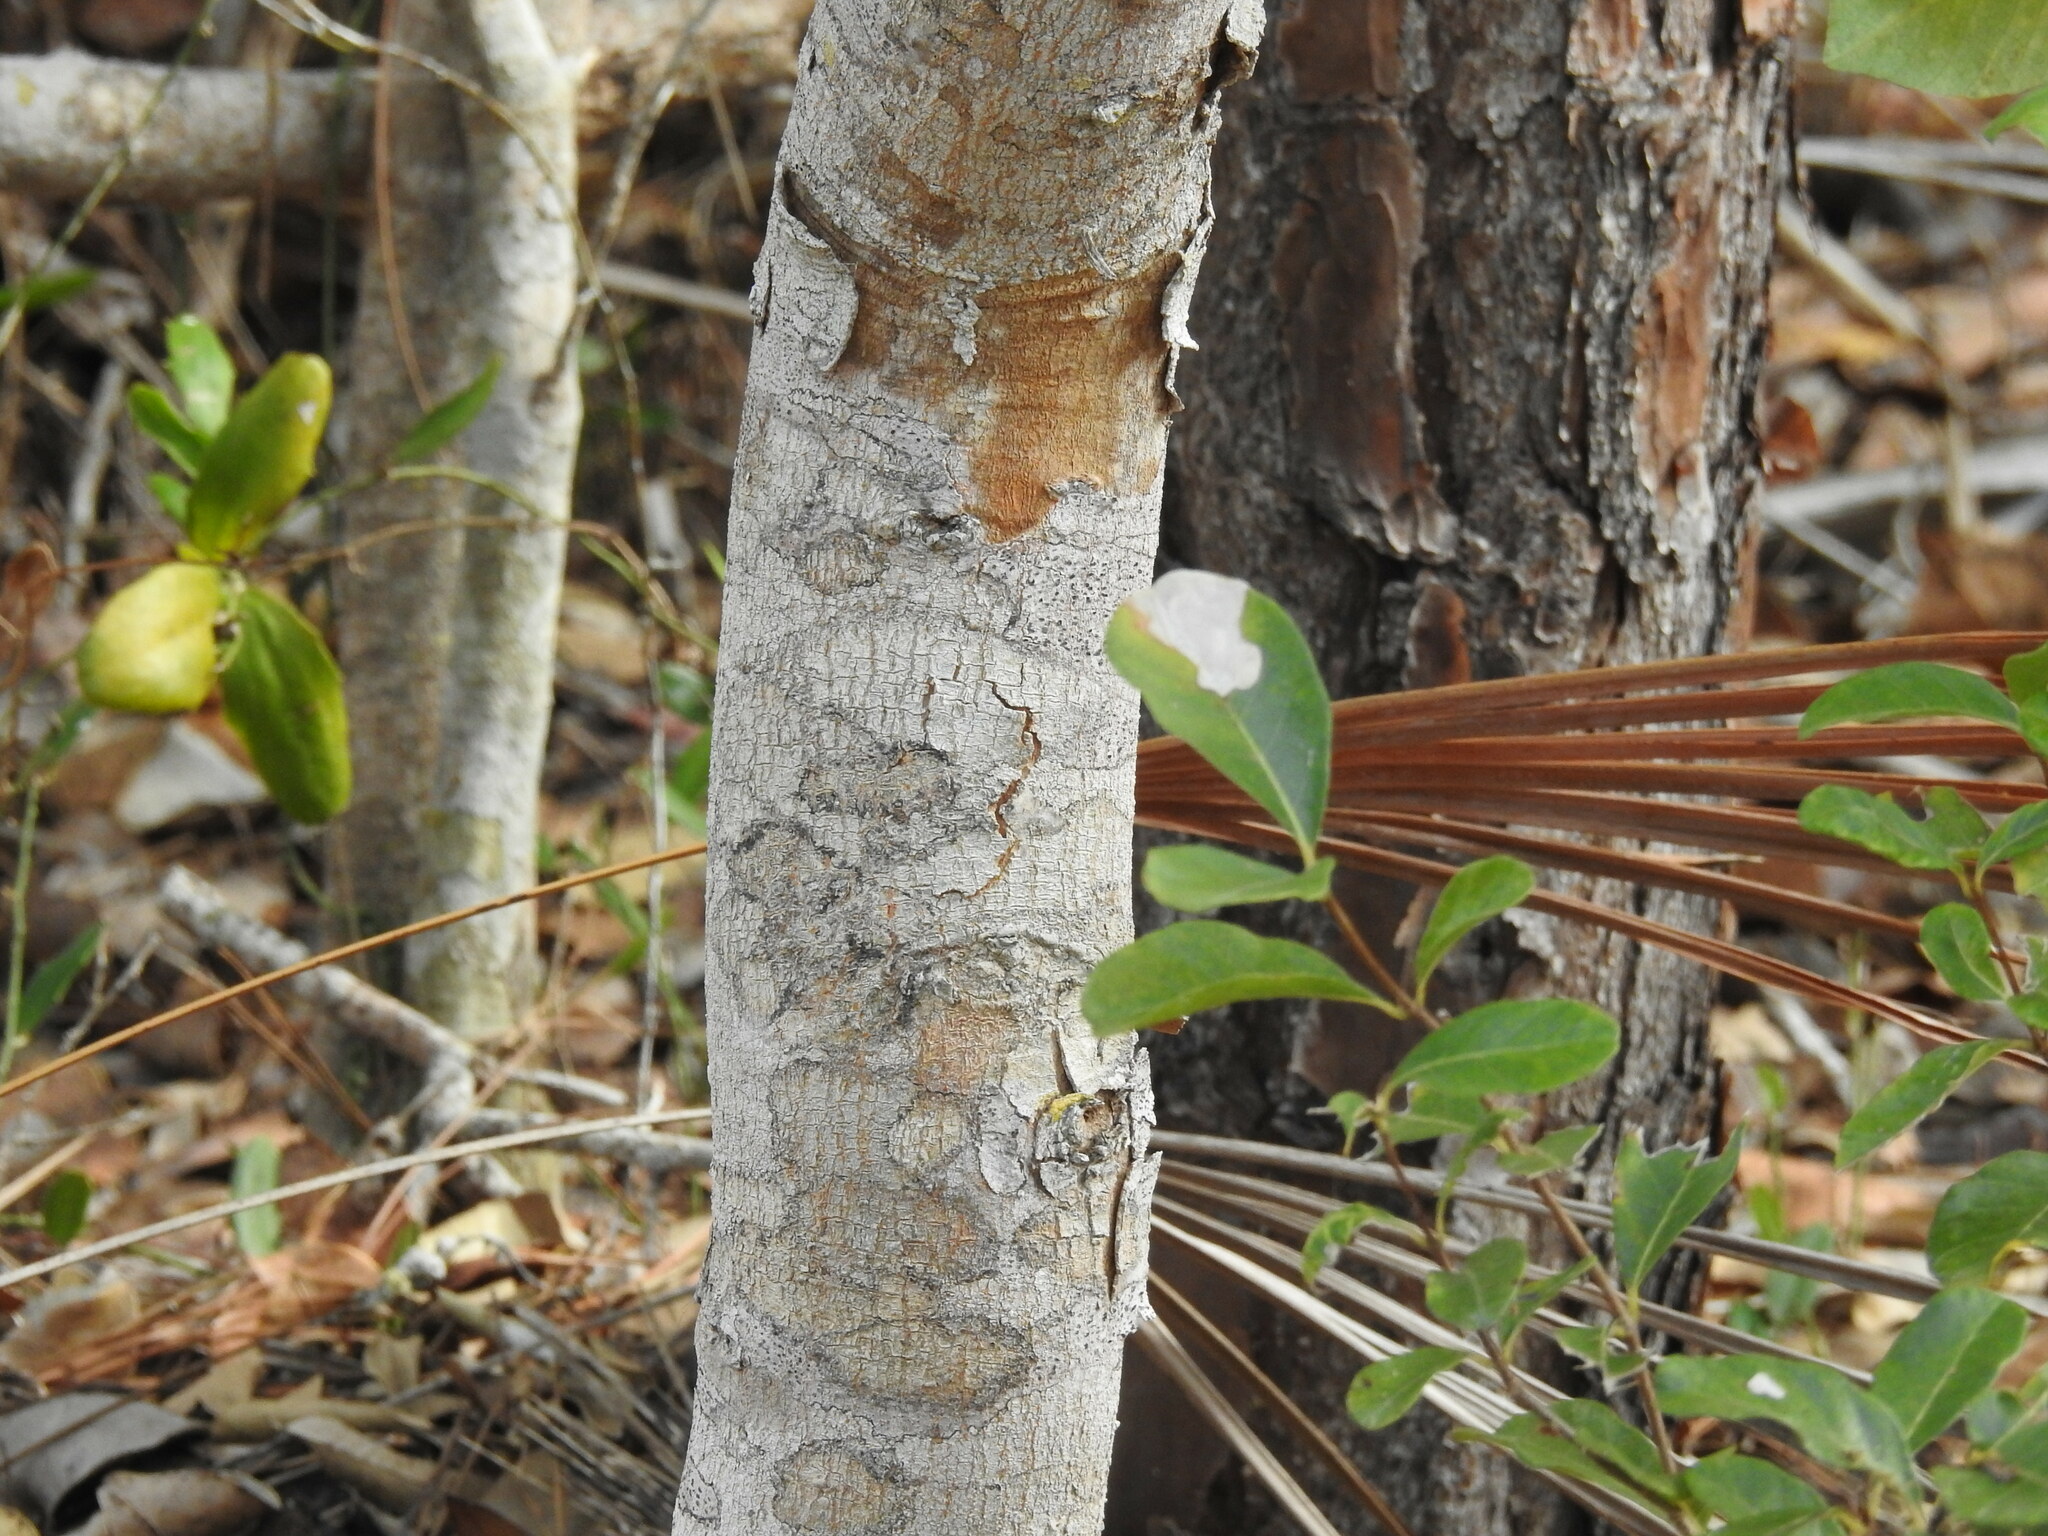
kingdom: Plantae
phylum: Tracheophyta
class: Magnoliopsida
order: Sapindales
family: Anacardiaceae
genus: Metopium
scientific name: Metopium toxiferum
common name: Florida poisontree
